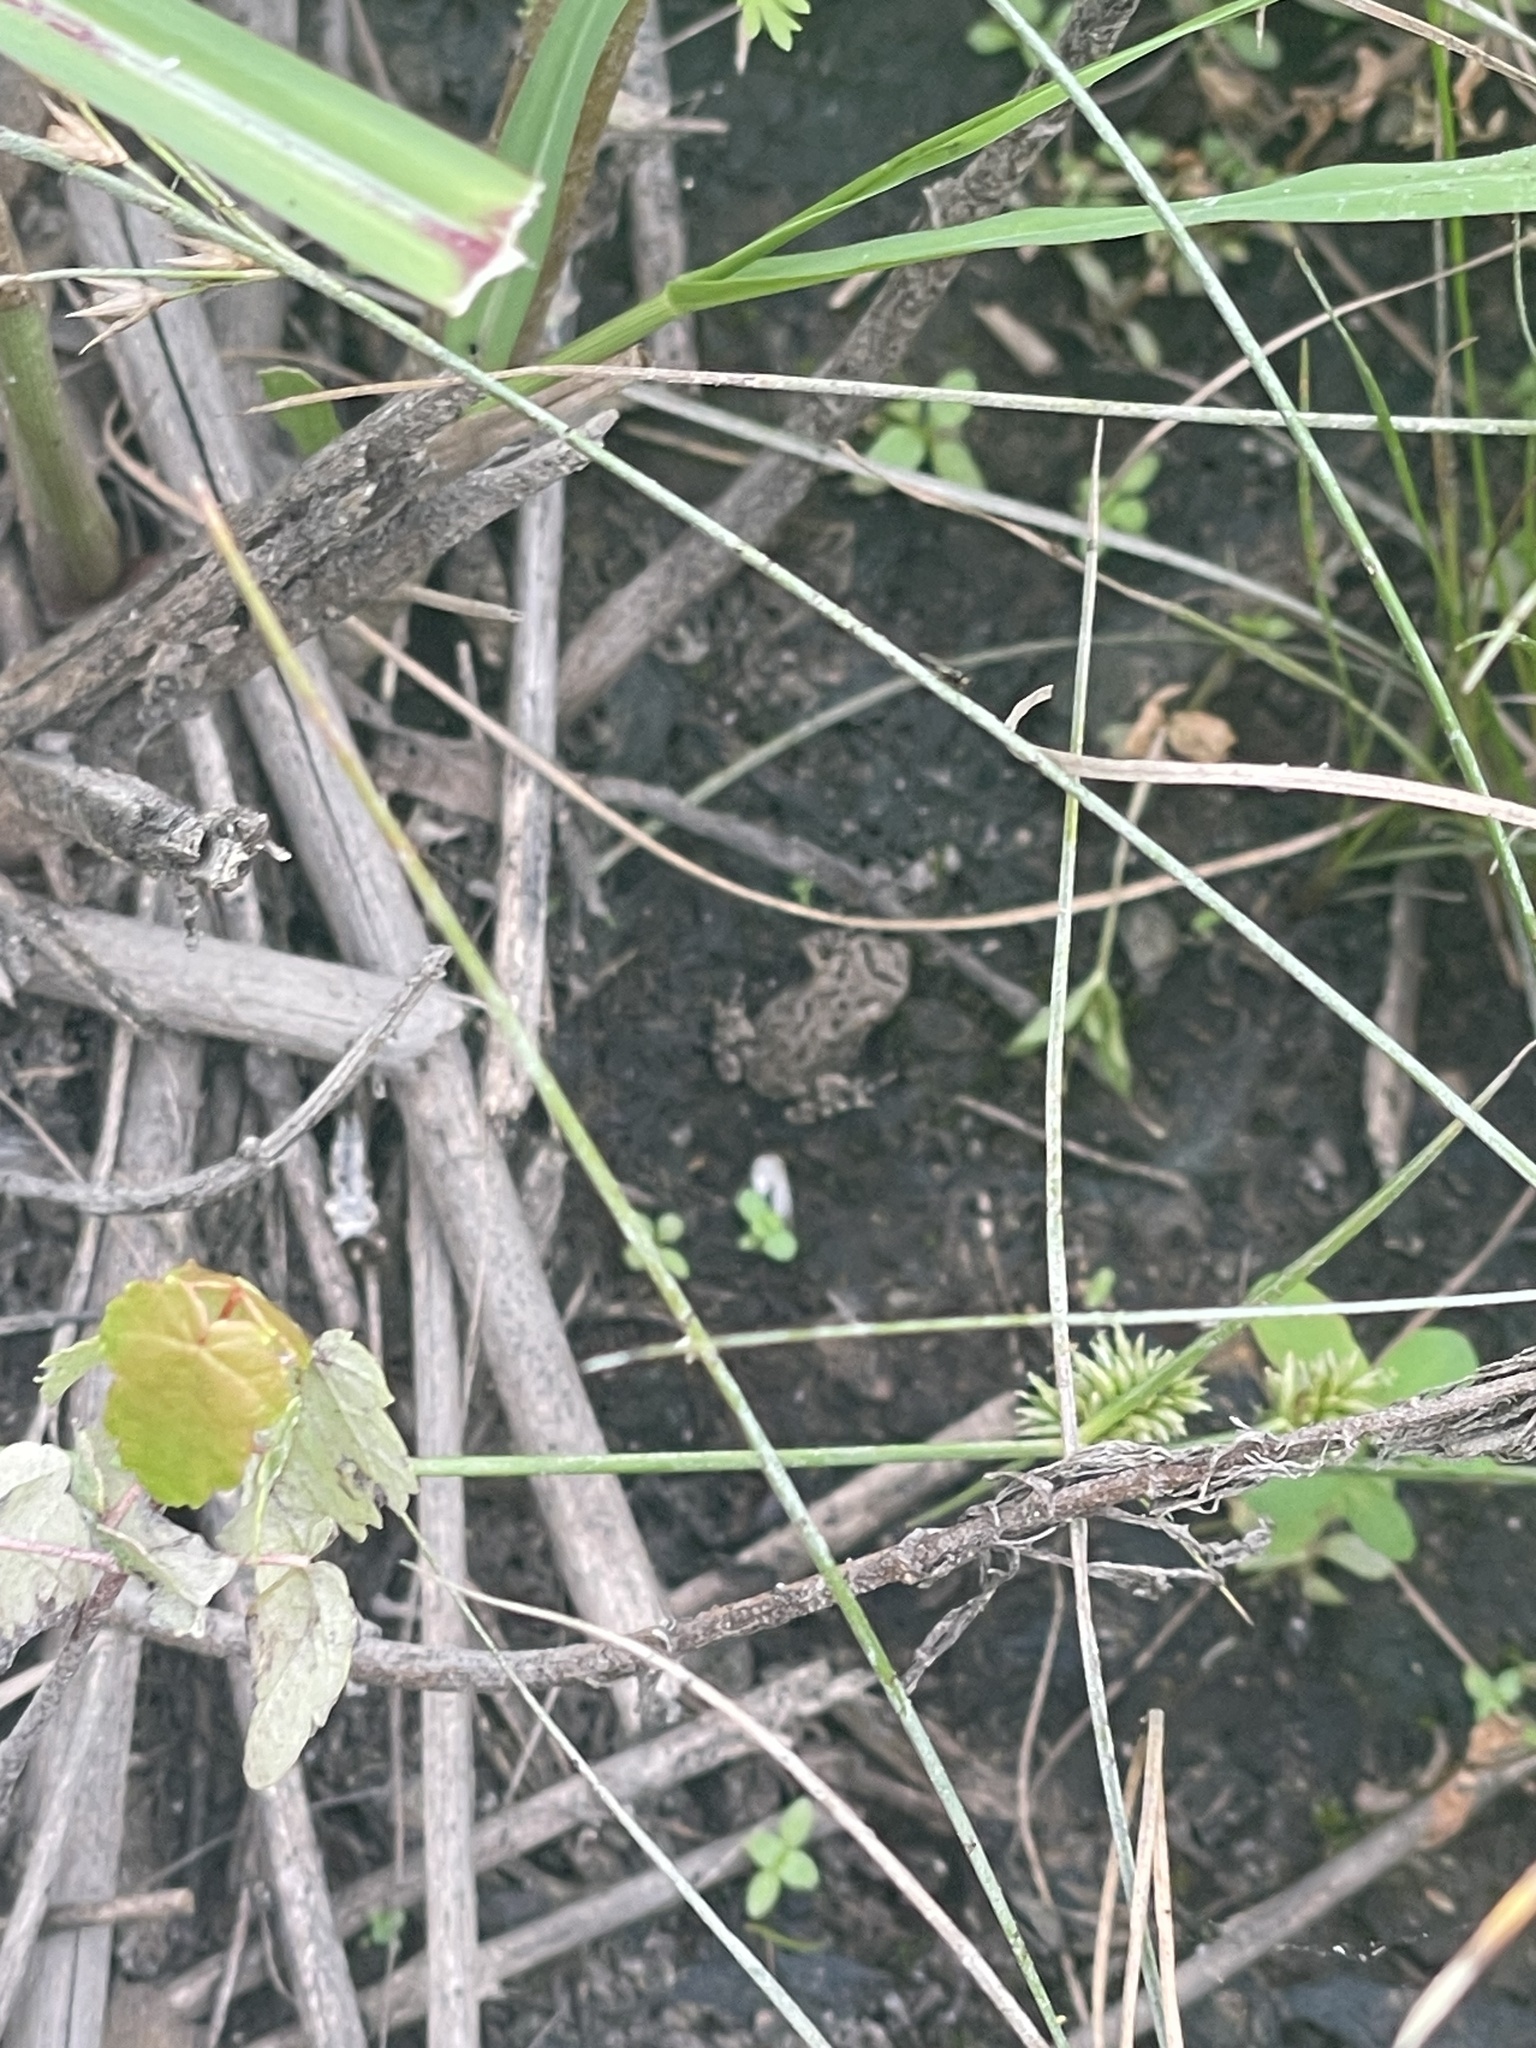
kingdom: Animalia
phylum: Chordata
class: Amphibia
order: Anura
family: Bufonidae
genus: Anaxyrus
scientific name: Anaxyrus fowleri
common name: Fowler's toad
